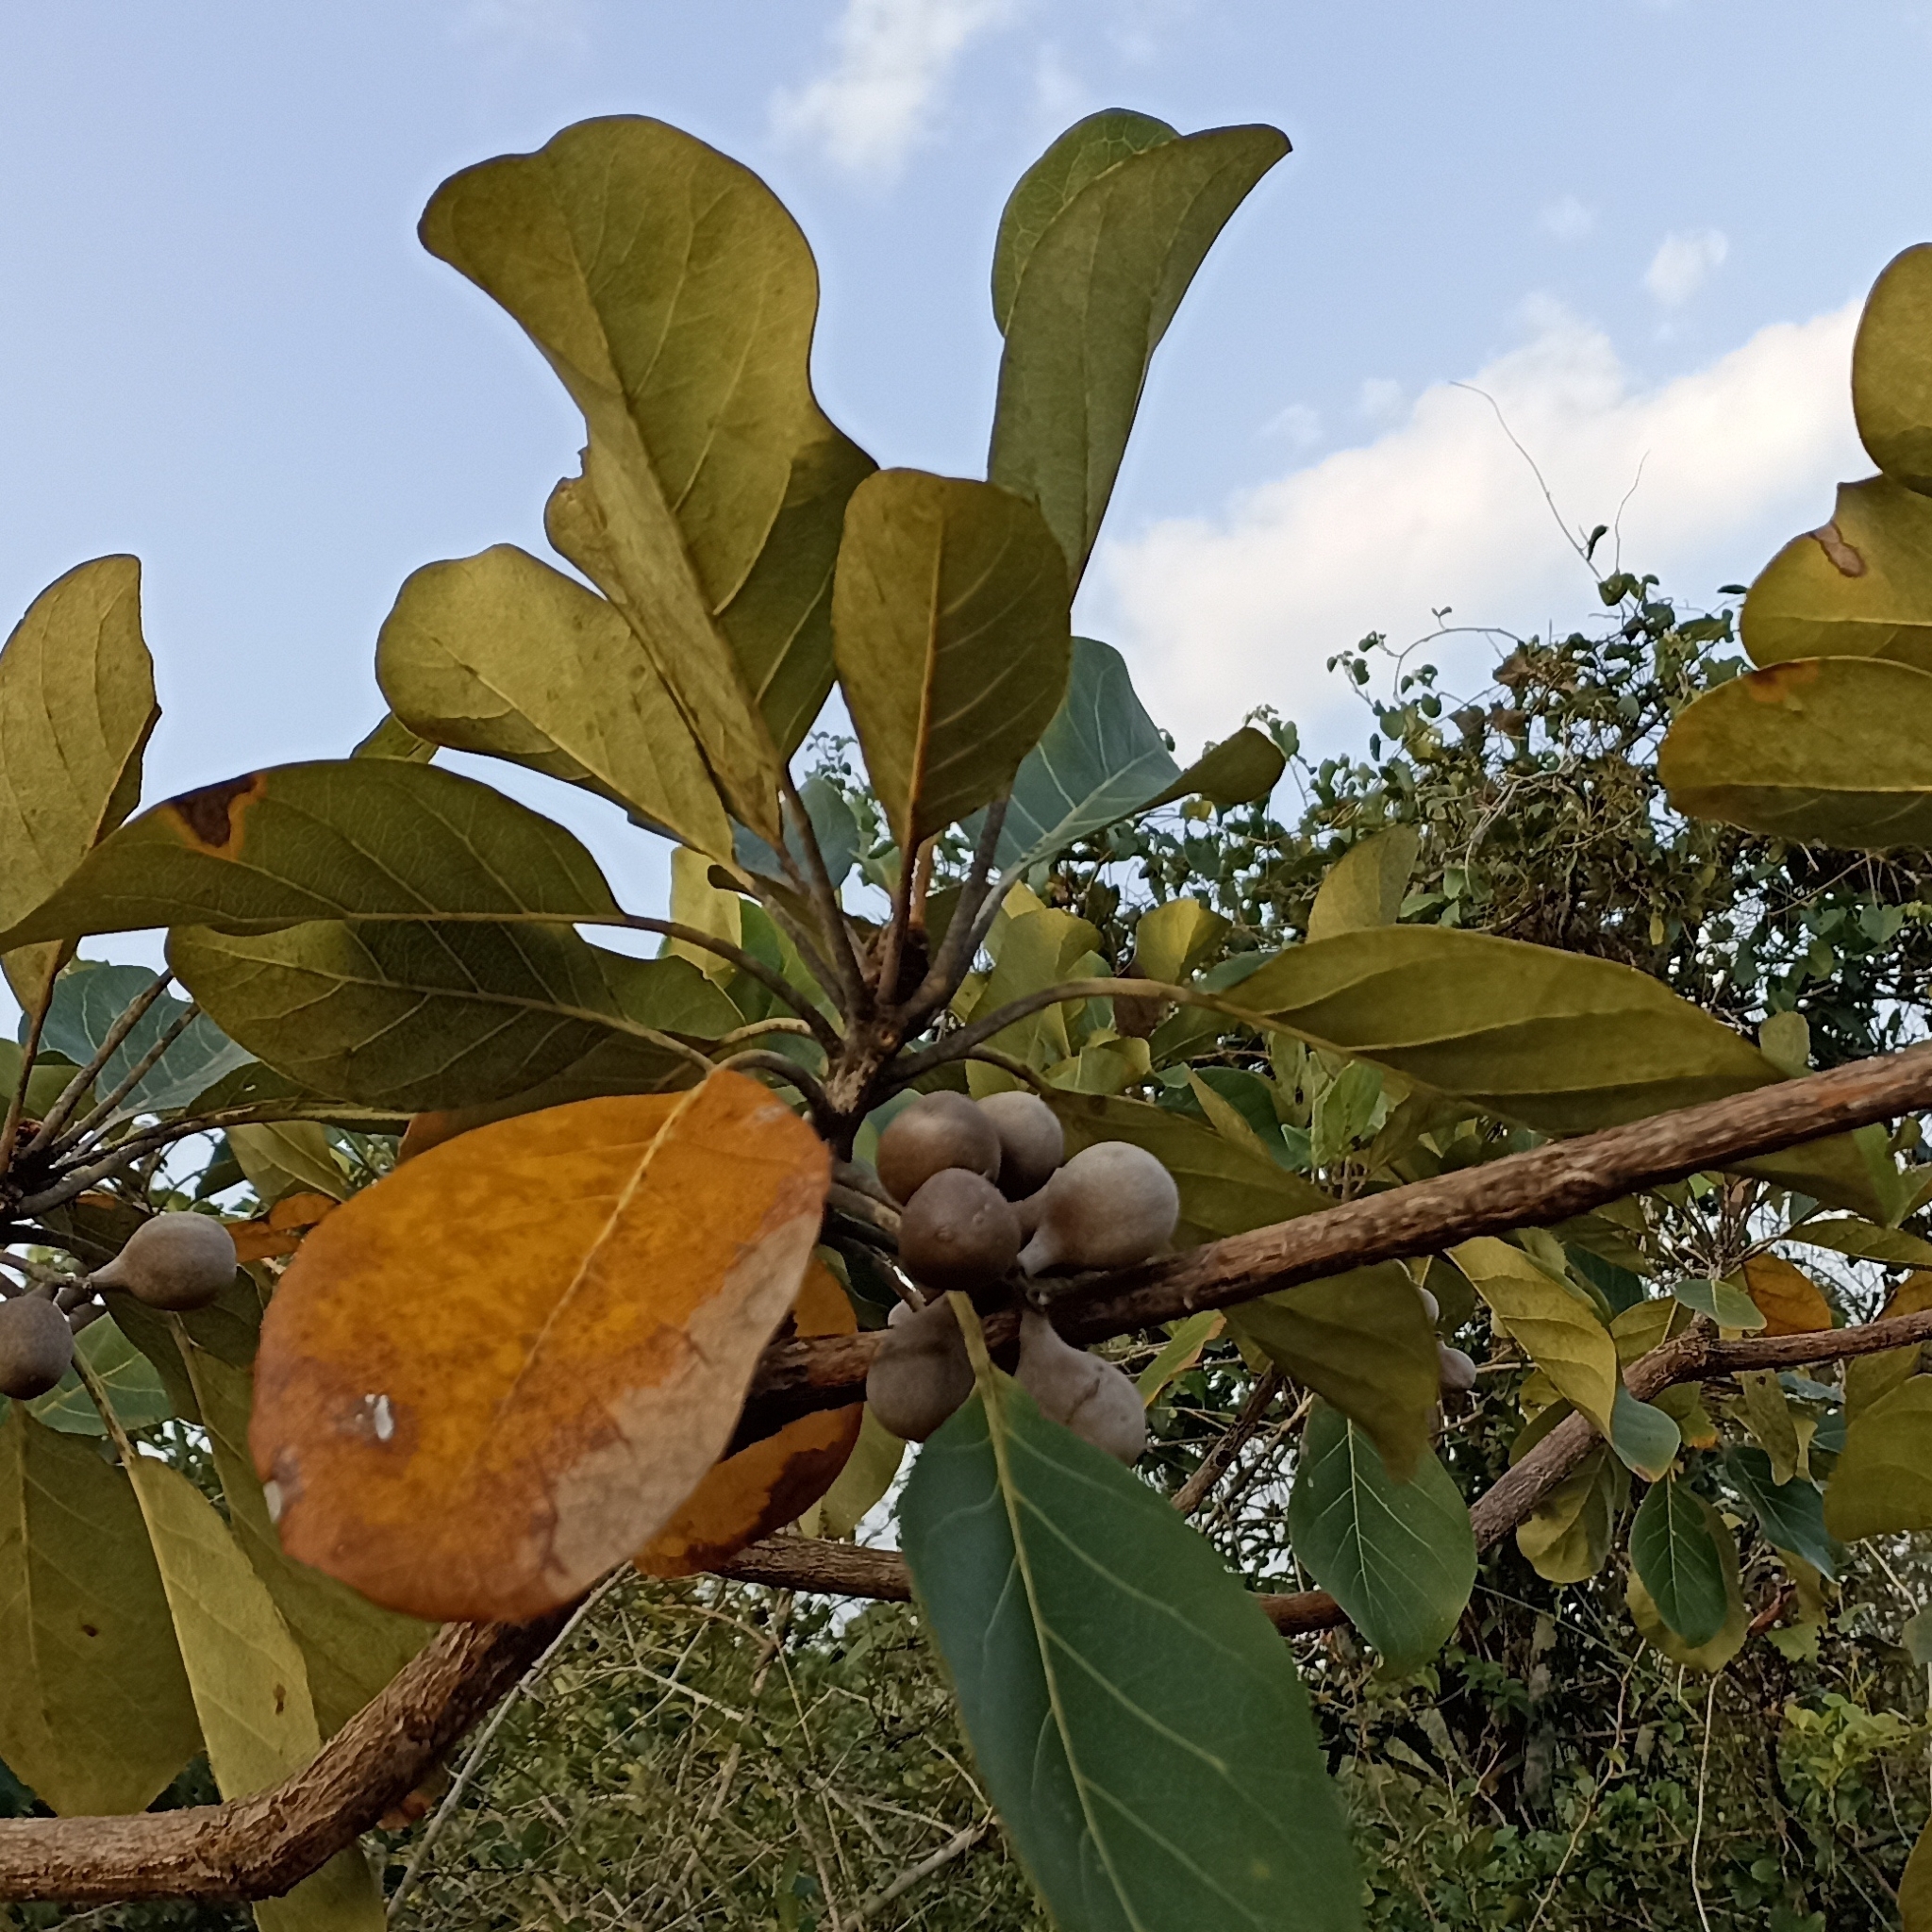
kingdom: Plantae
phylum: Tracheophyta
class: Magnoliopsida
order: Myrtales
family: Combretaceae
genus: Terminalia
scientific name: Terminalia bellirica
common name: Beleric myrobalan
